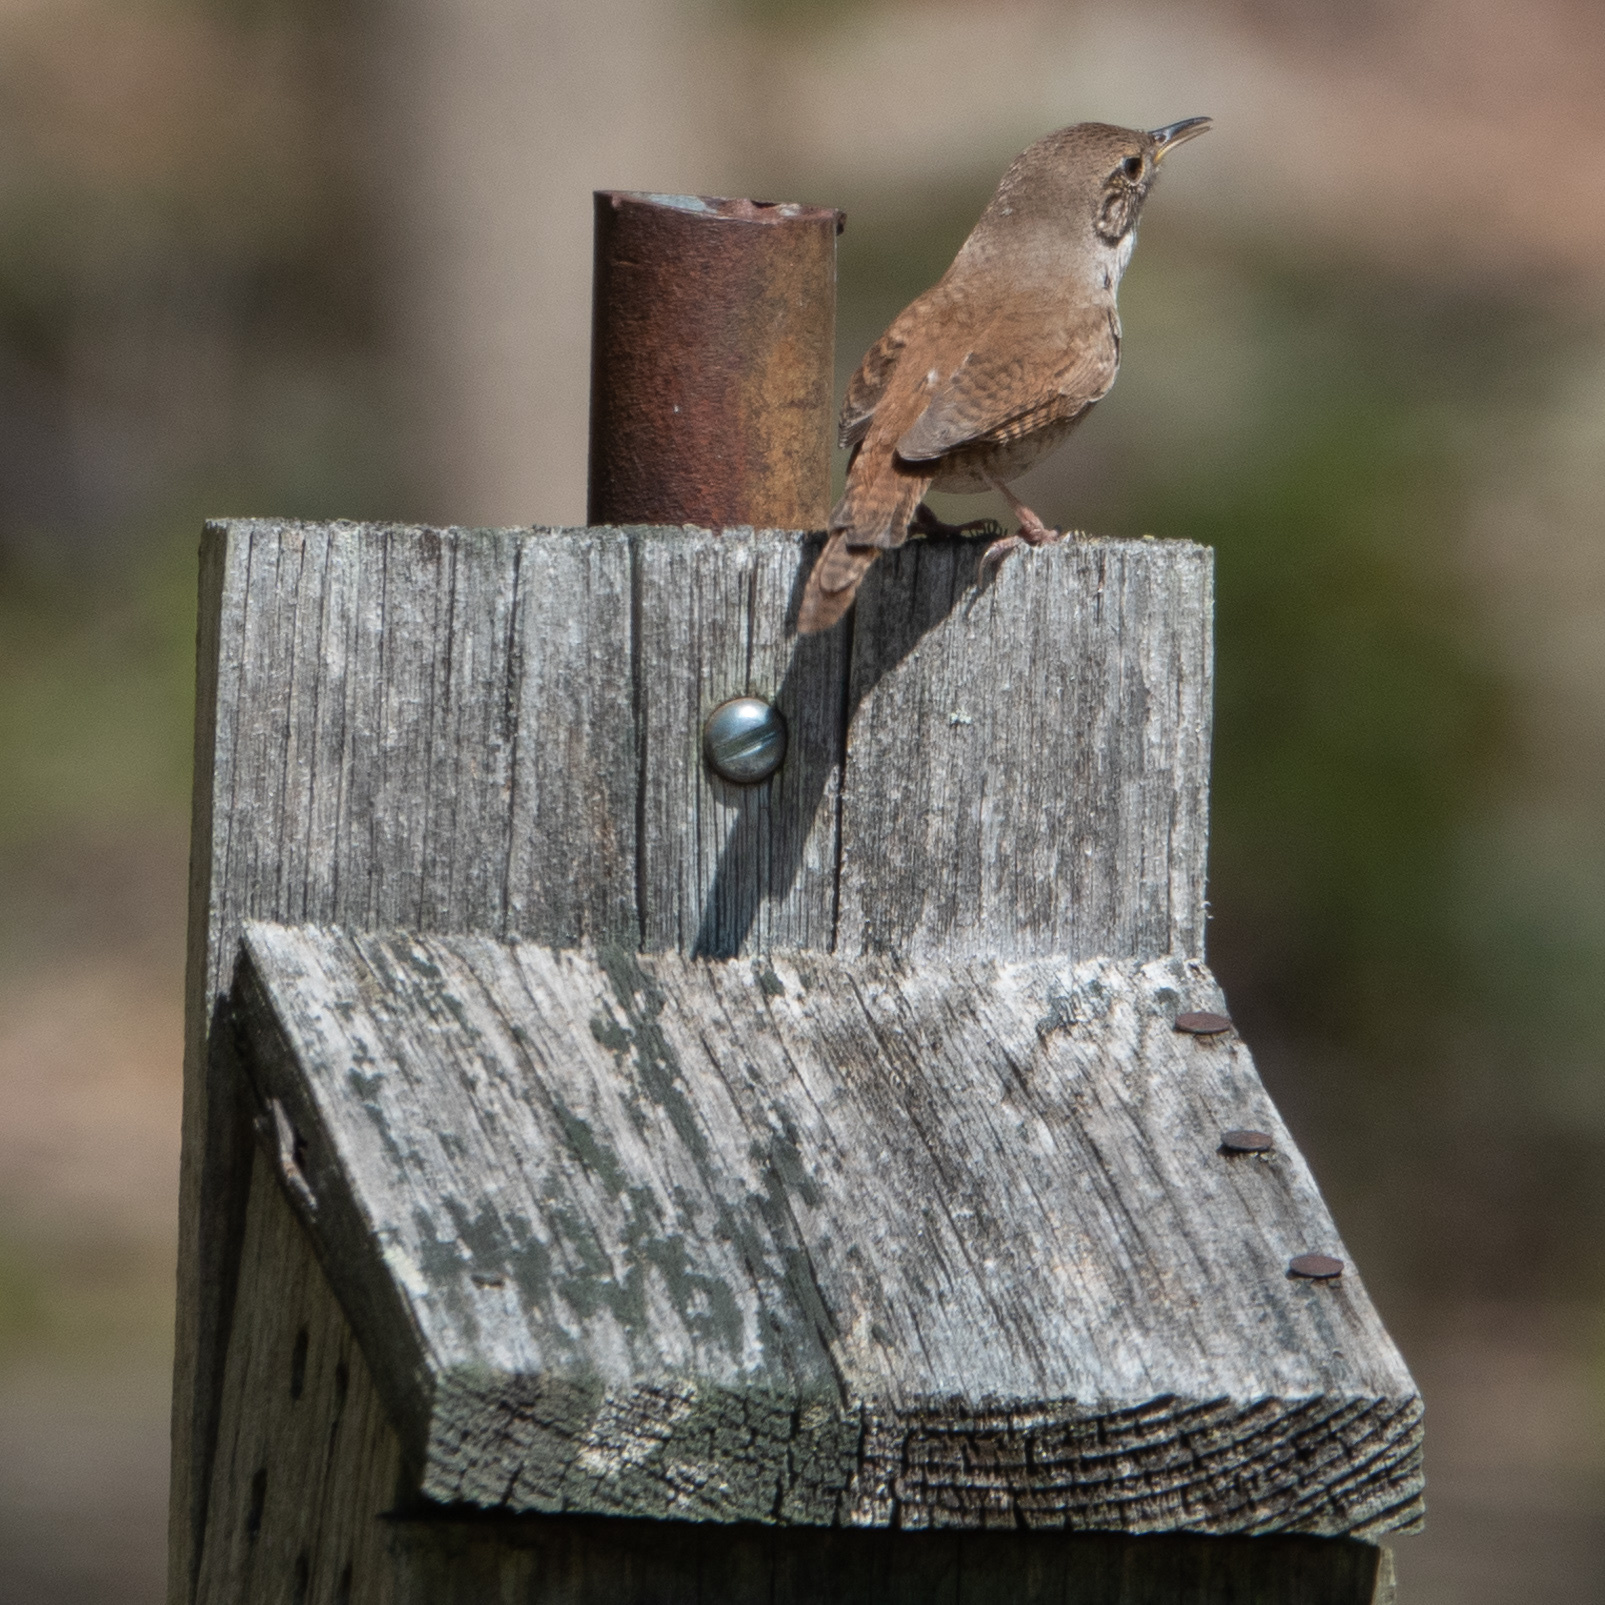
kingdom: Animalia
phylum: Chordata
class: Aves
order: Passeriformes
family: Troglodytidae
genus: Troglodytes
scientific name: Troglodytes aedon
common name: House wren
